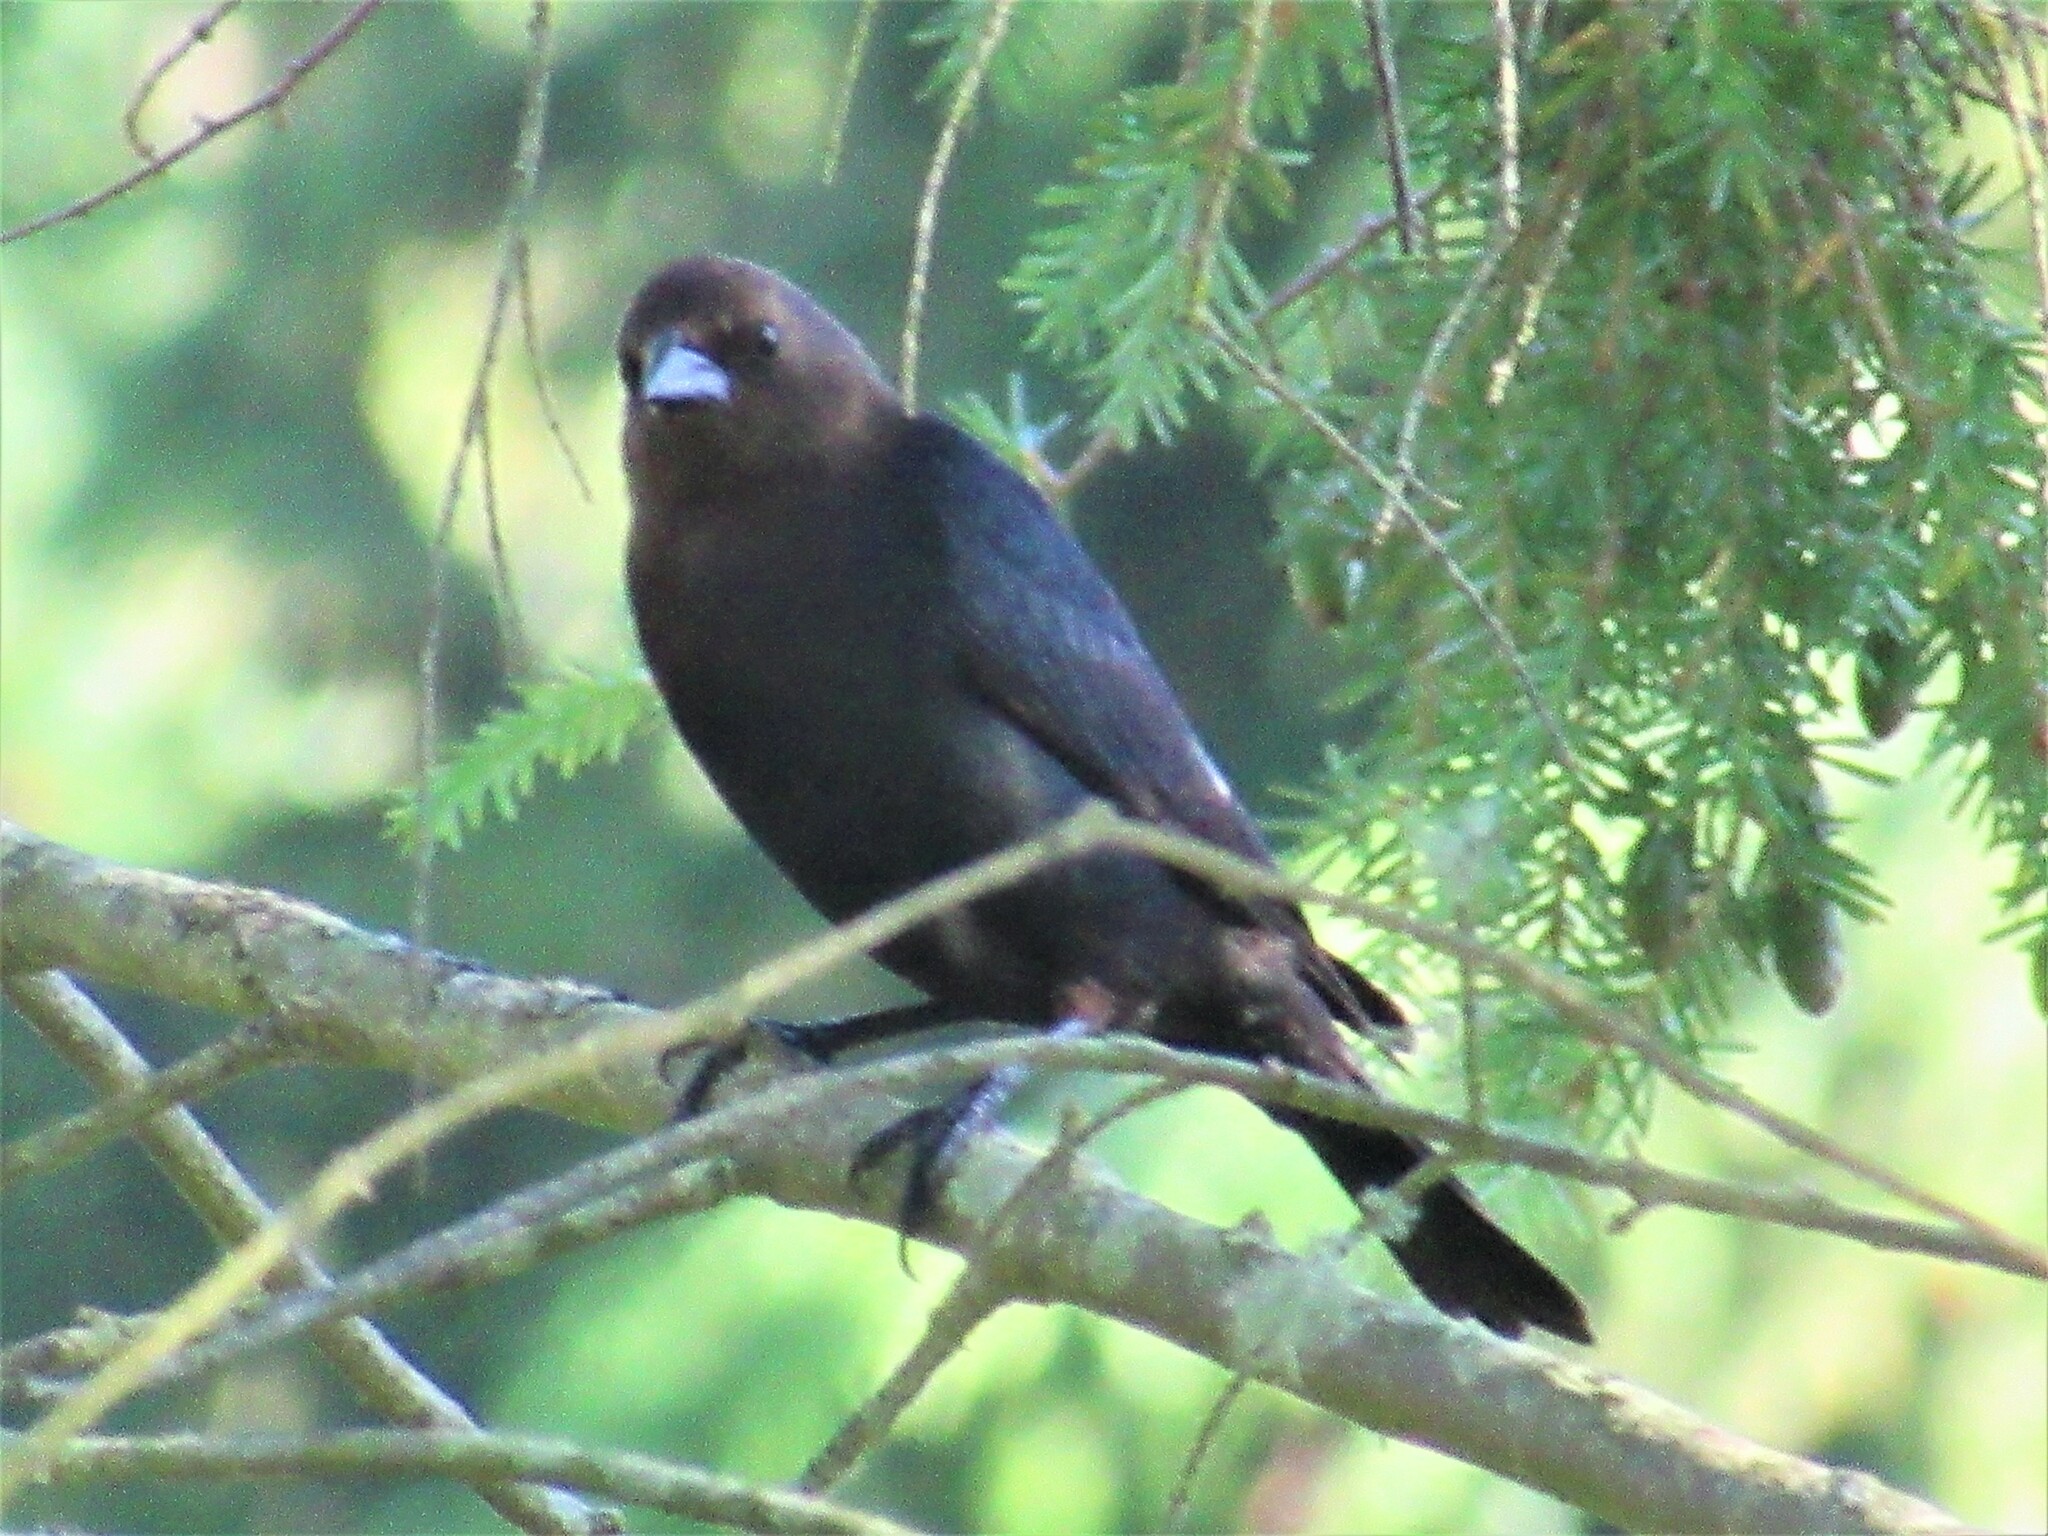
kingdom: Animalia
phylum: Chordata
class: Aves
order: Passeriformes
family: Icteridae
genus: Molothrus
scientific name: Molothrus ater
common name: Brown-headed cowbird
